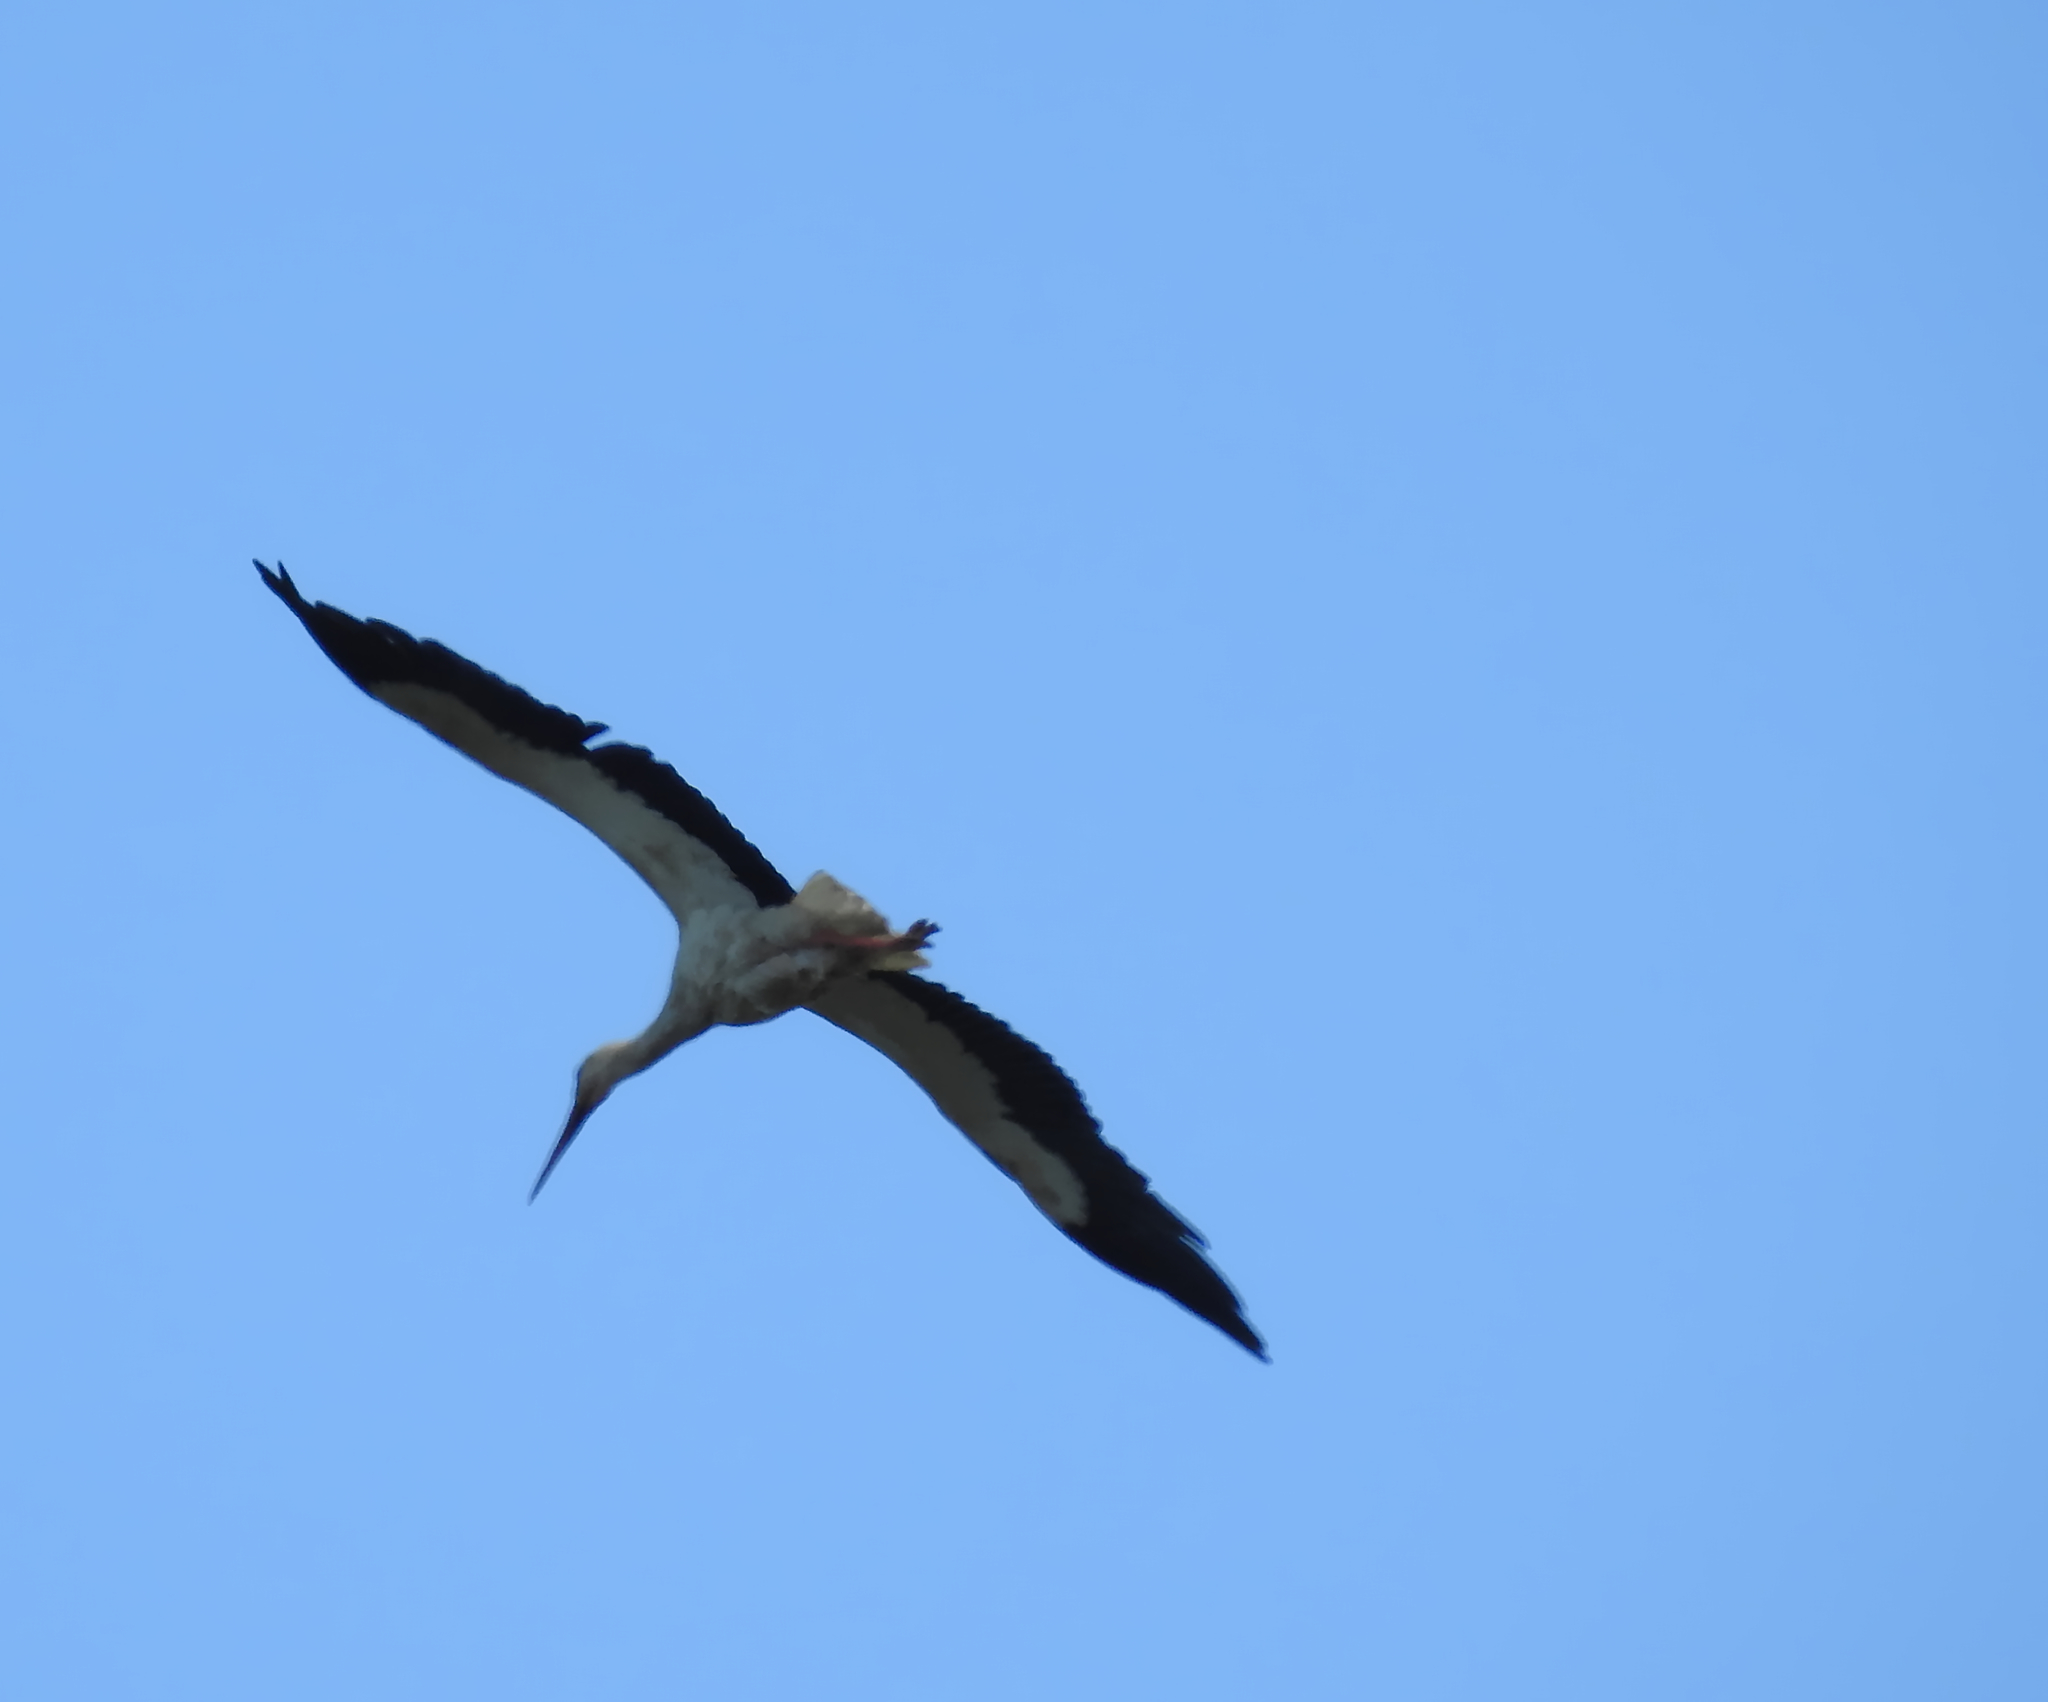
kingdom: Animalia
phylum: Chordata
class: Aves
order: Ciconiiformes
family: Ciconiidae
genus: Ciconia
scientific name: Ciconia ciconia
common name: White stork
